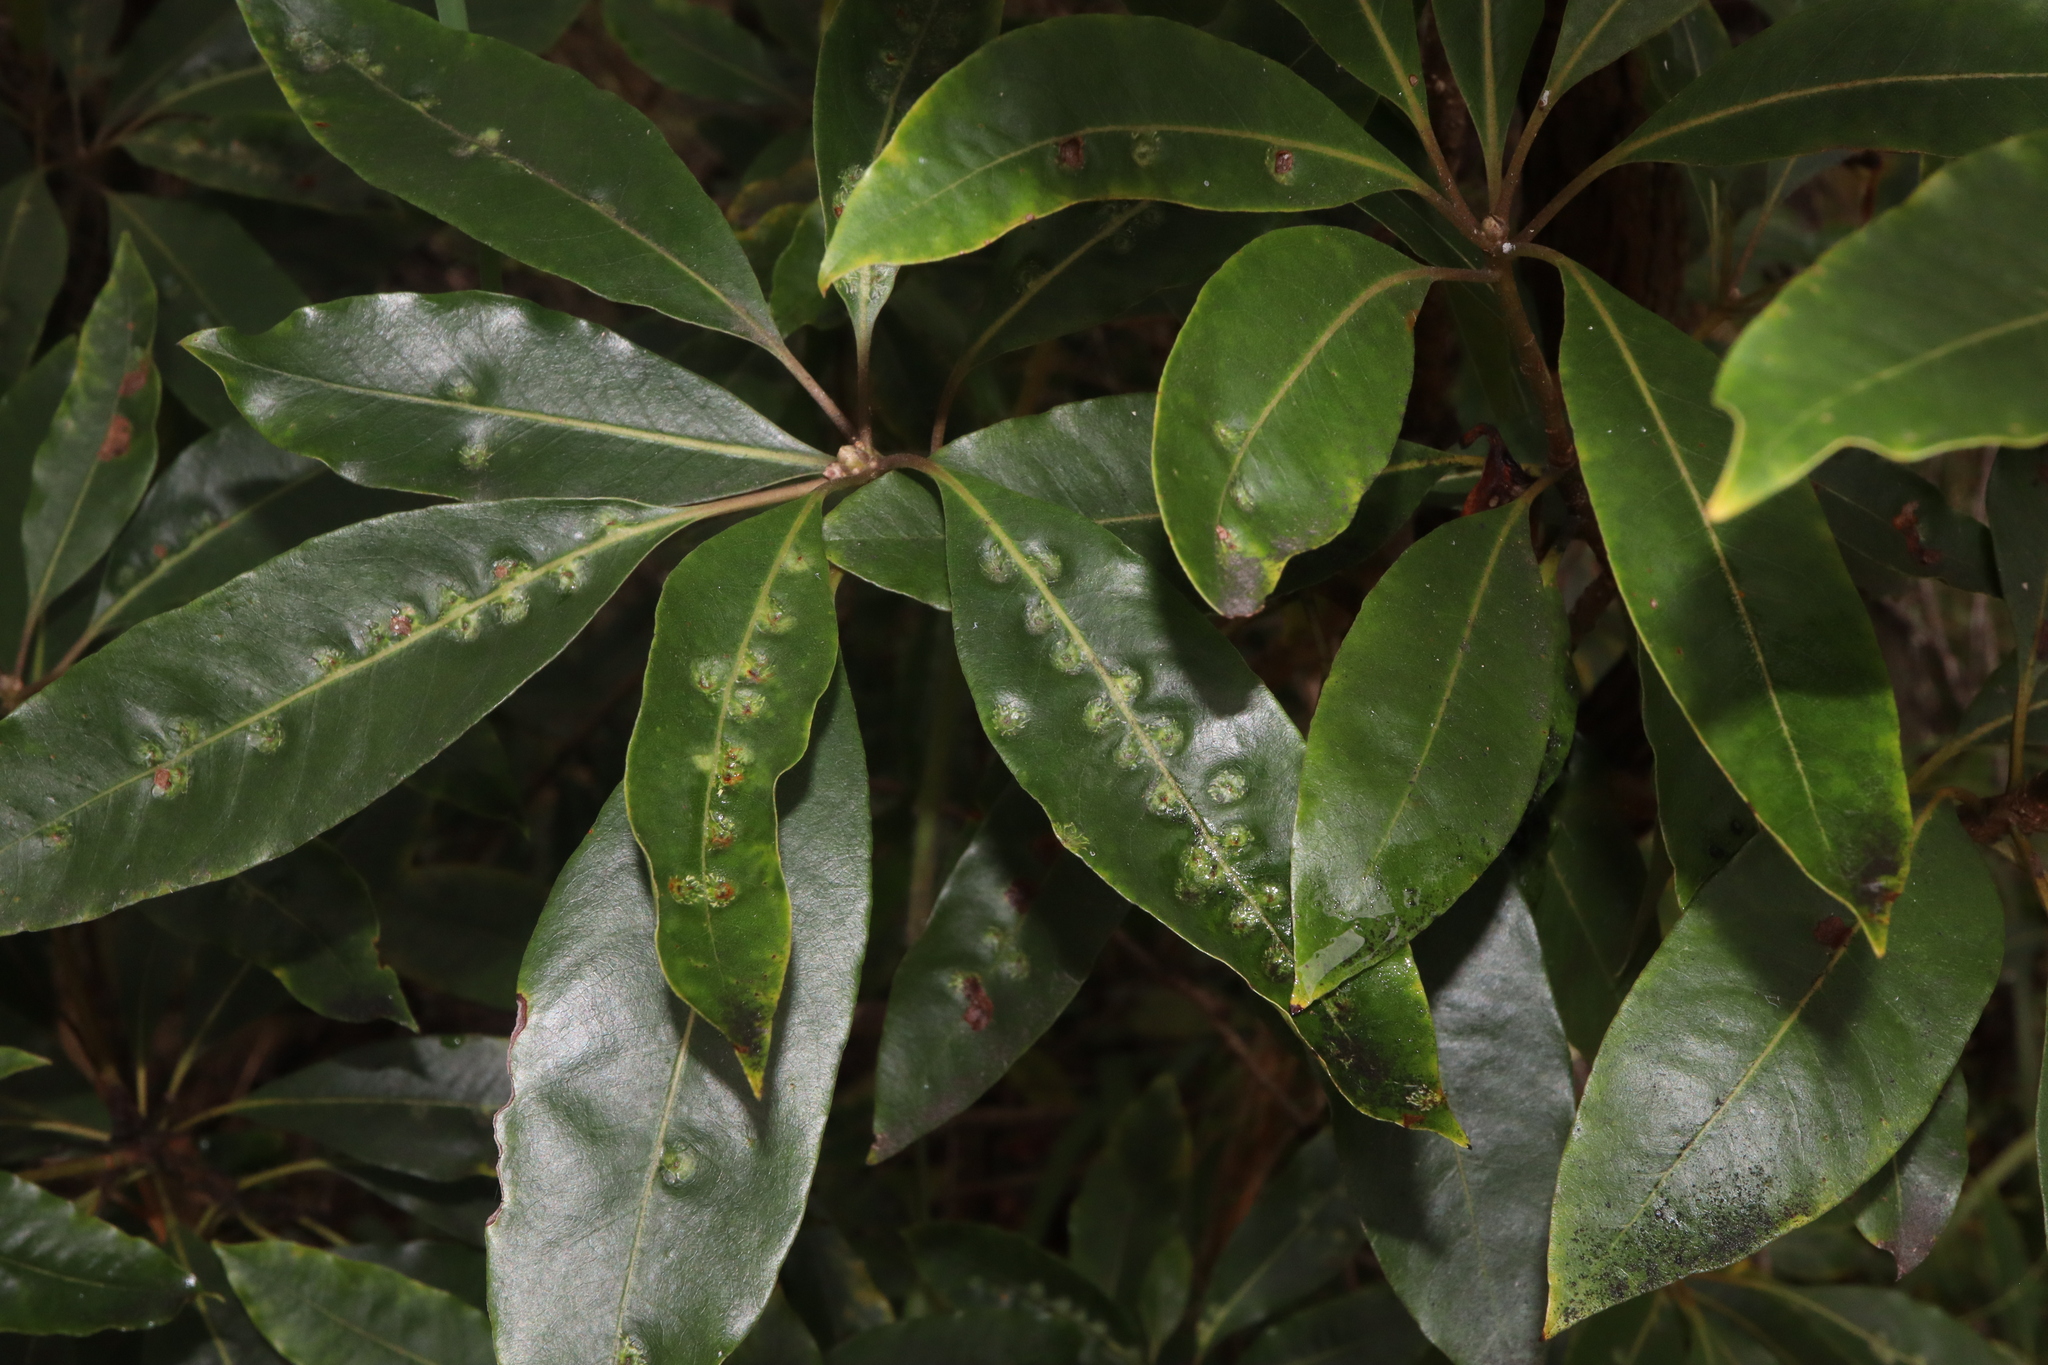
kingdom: Animalia
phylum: Arthropoda
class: Insecta
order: Diptera
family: Agromyzidae
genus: Phytoliriomyza
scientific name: Phytoliriomyza pittosporophylli
